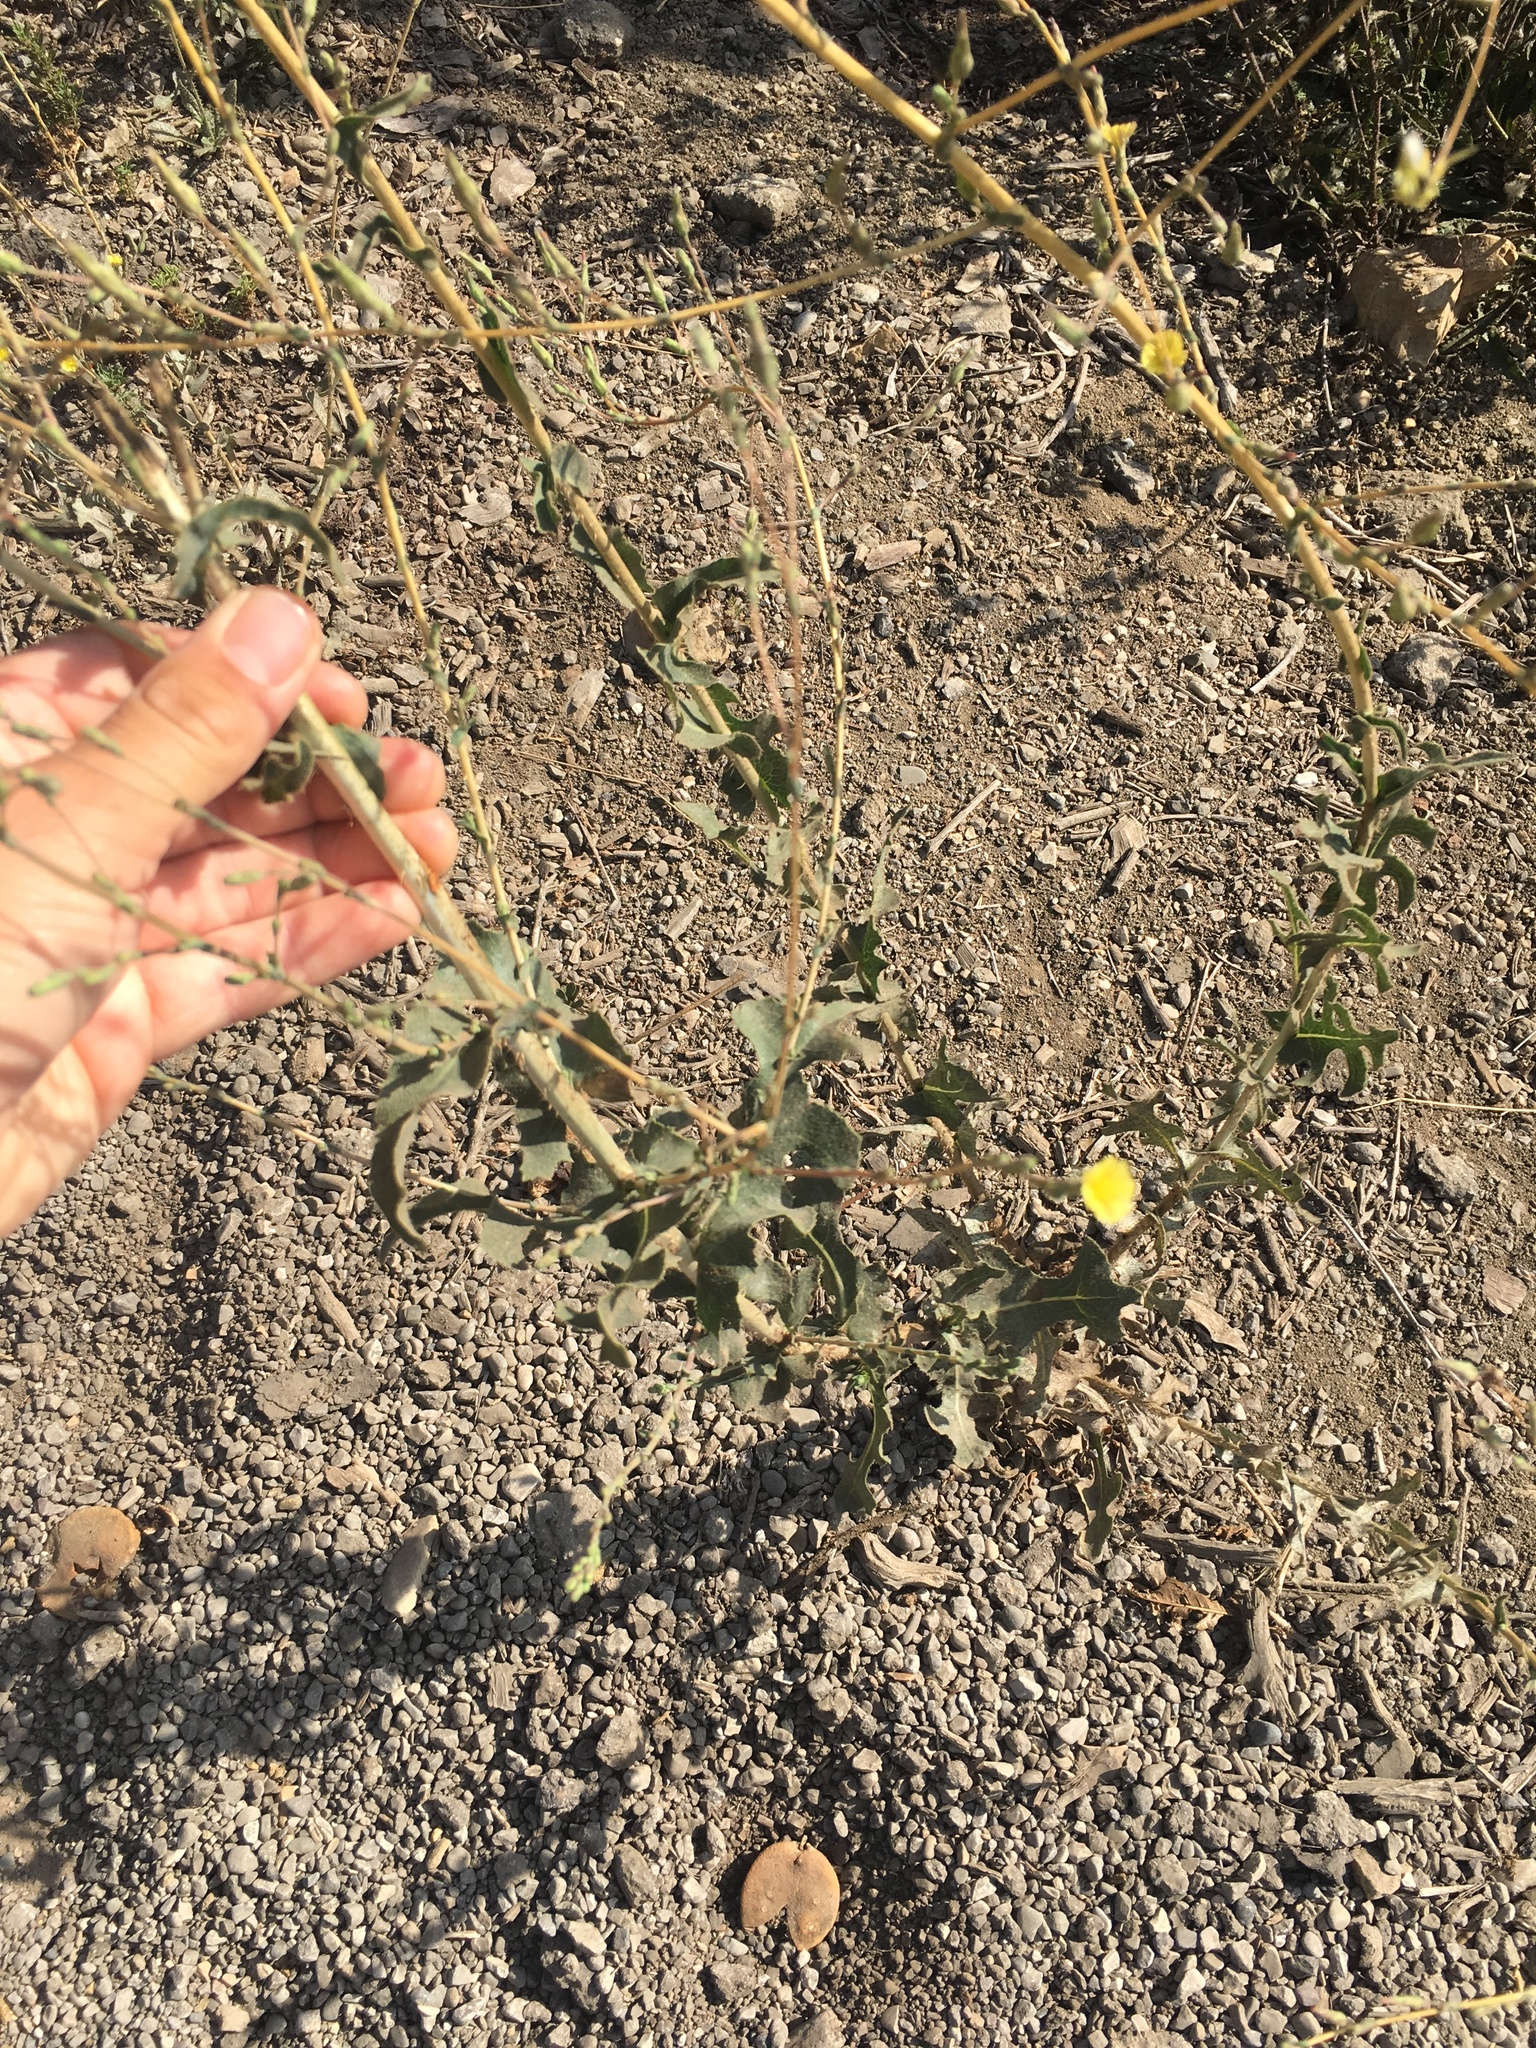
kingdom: Plantae
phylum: Tracheophyta
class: Magnoliopsida
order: Asterales
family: Asteraceae
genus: Lactuca
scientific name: Lactuca serriola
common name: Prickly lettuce
